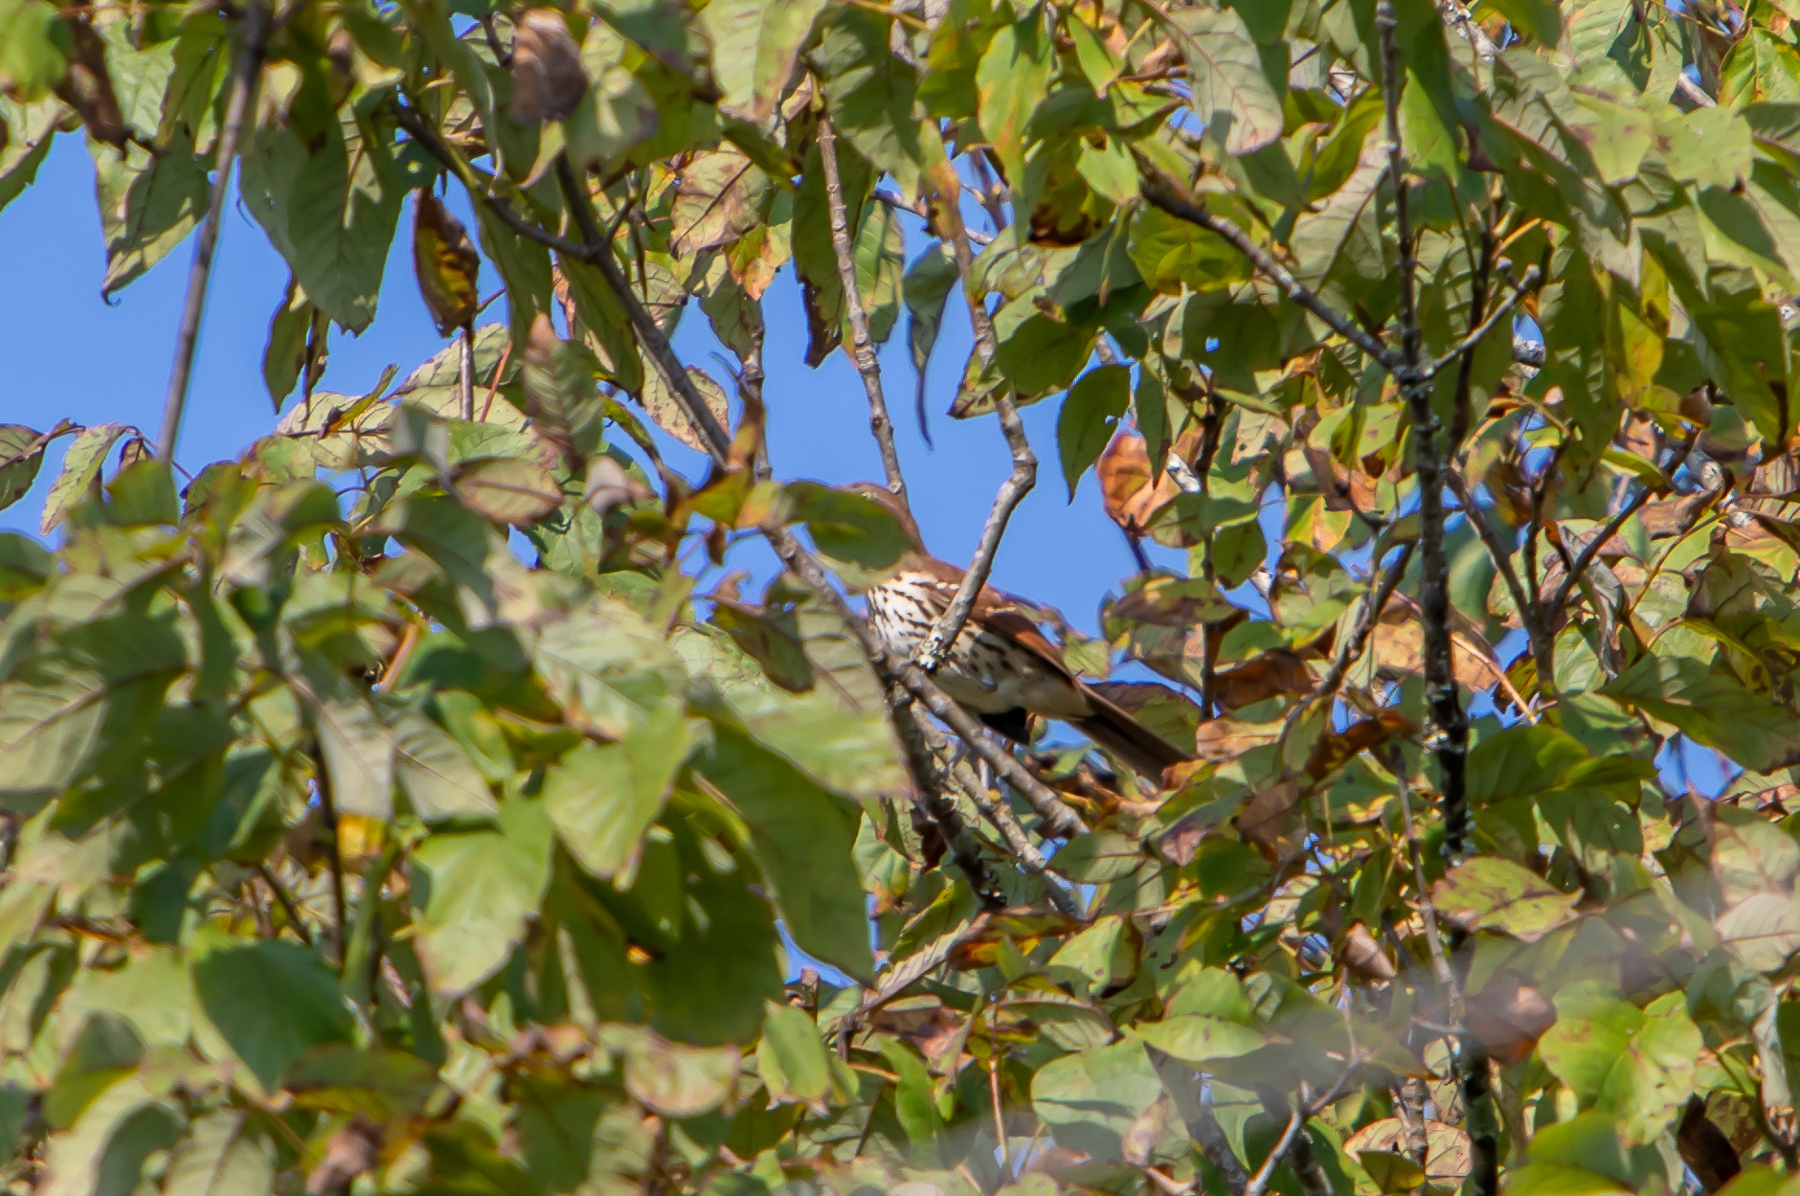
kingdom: Animalia
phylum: Chordata
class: Aves
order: Passeriformes
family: Mimidae
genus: Toxostoma
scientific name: Toxostoma rufum
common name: Brown thrasher
